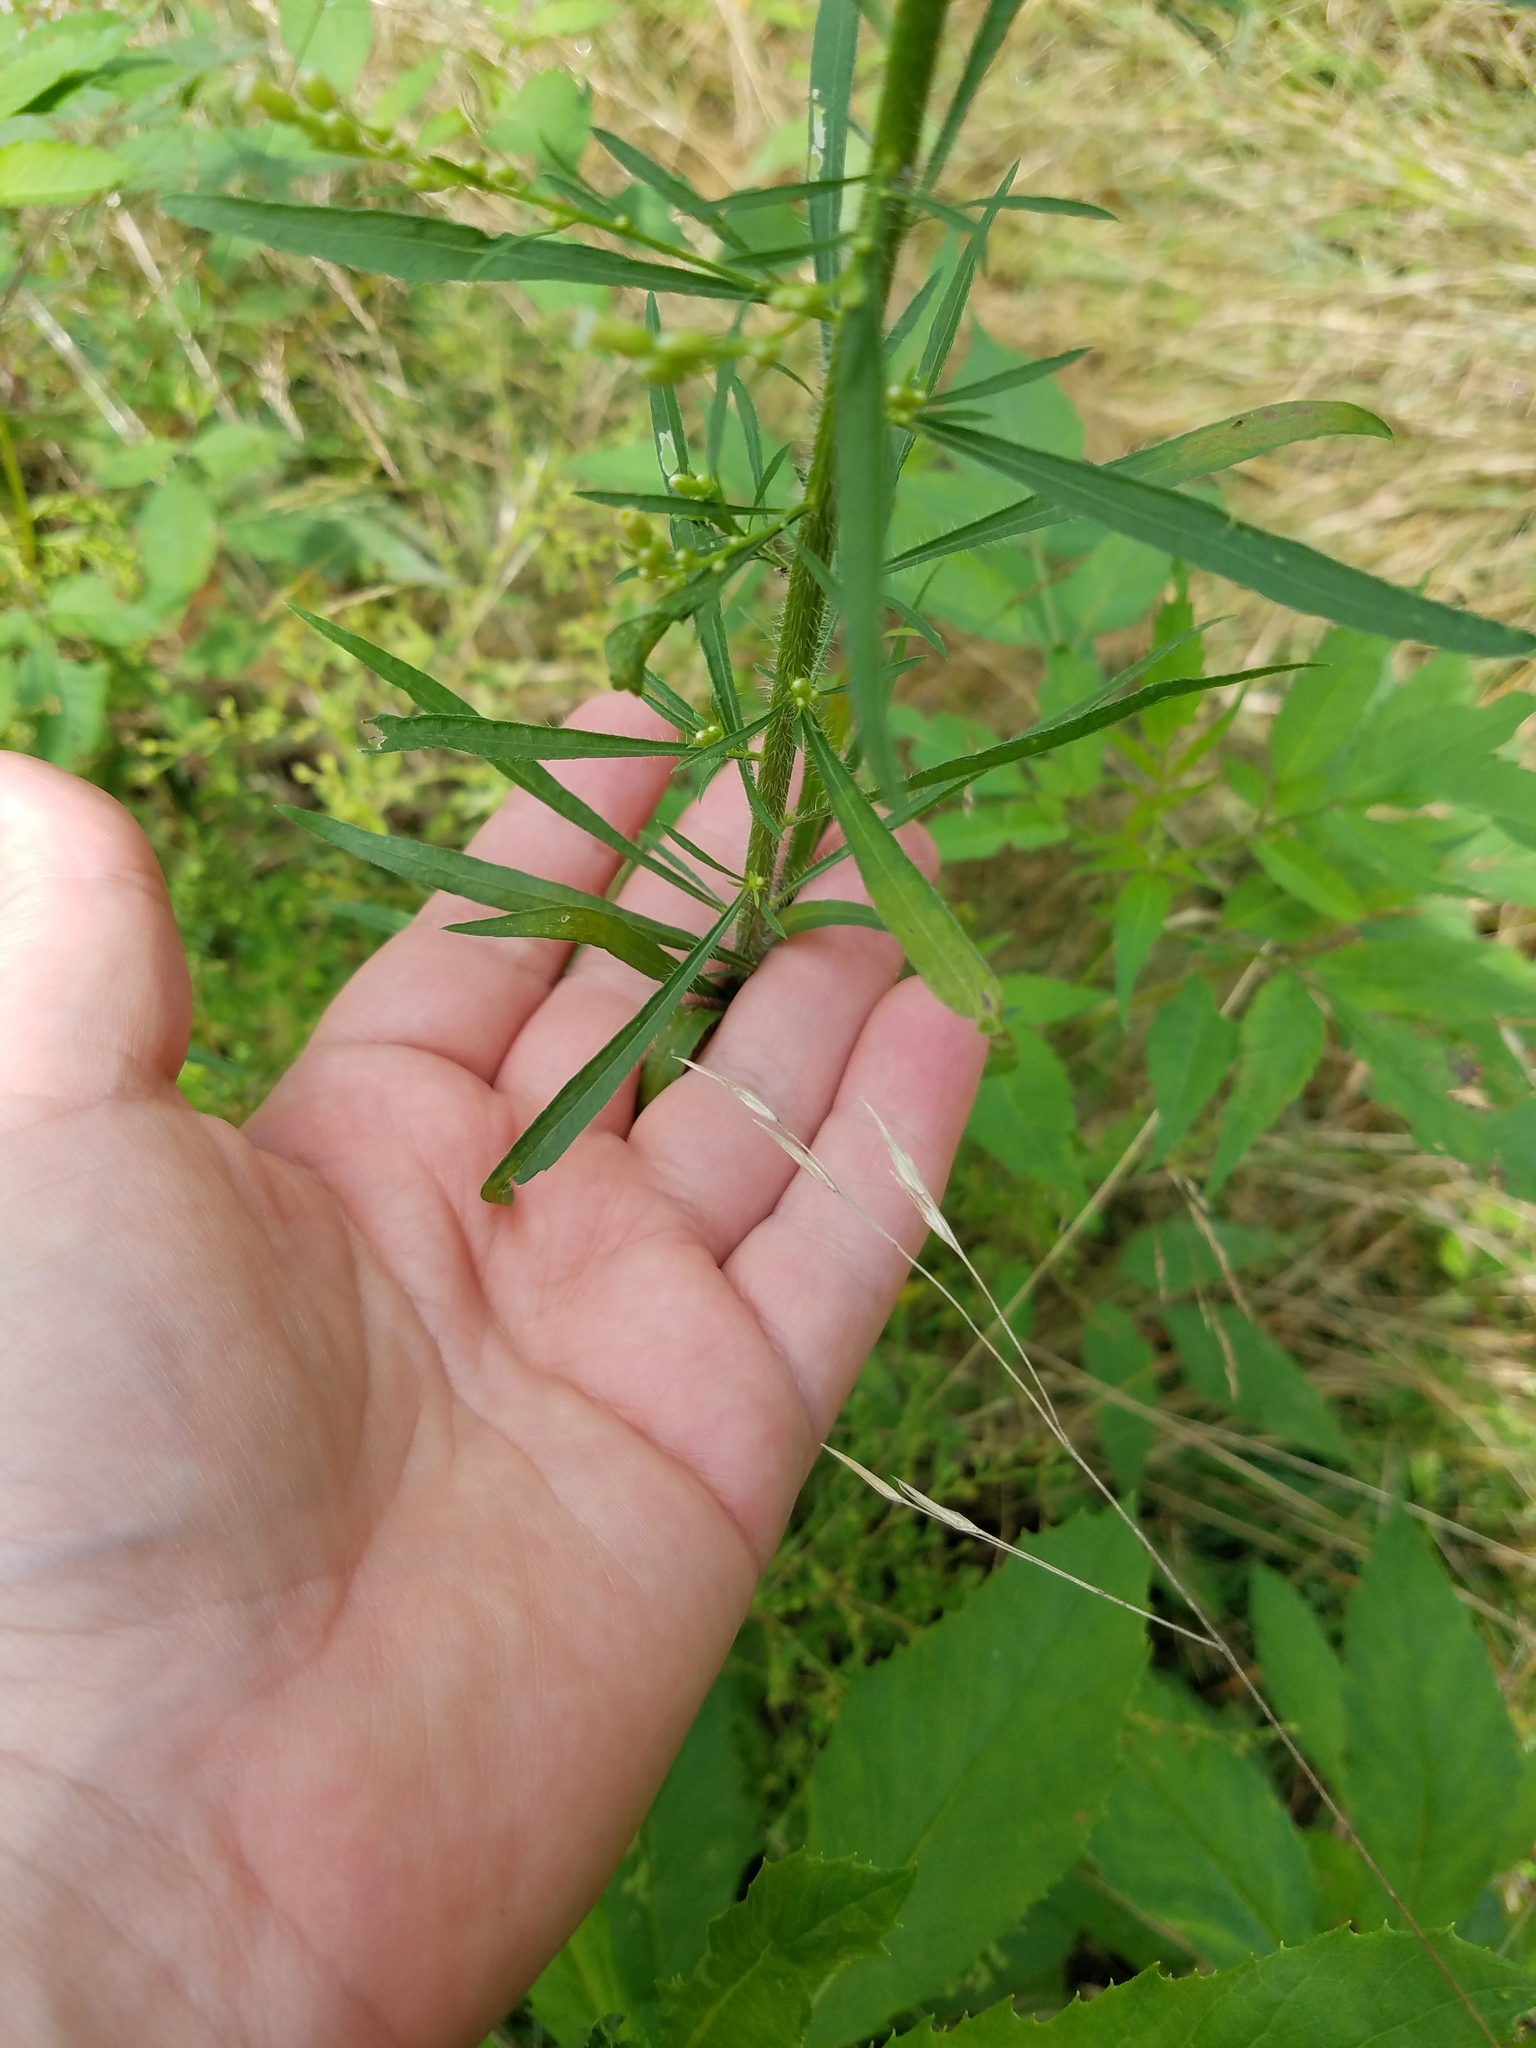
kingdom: Plantae
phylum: Tracheophyta
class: Magnoliopsida
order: Asterales
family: Asteraceae
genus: Erigeron
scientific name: Erigeron canadensis
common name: Canadian fleabane
